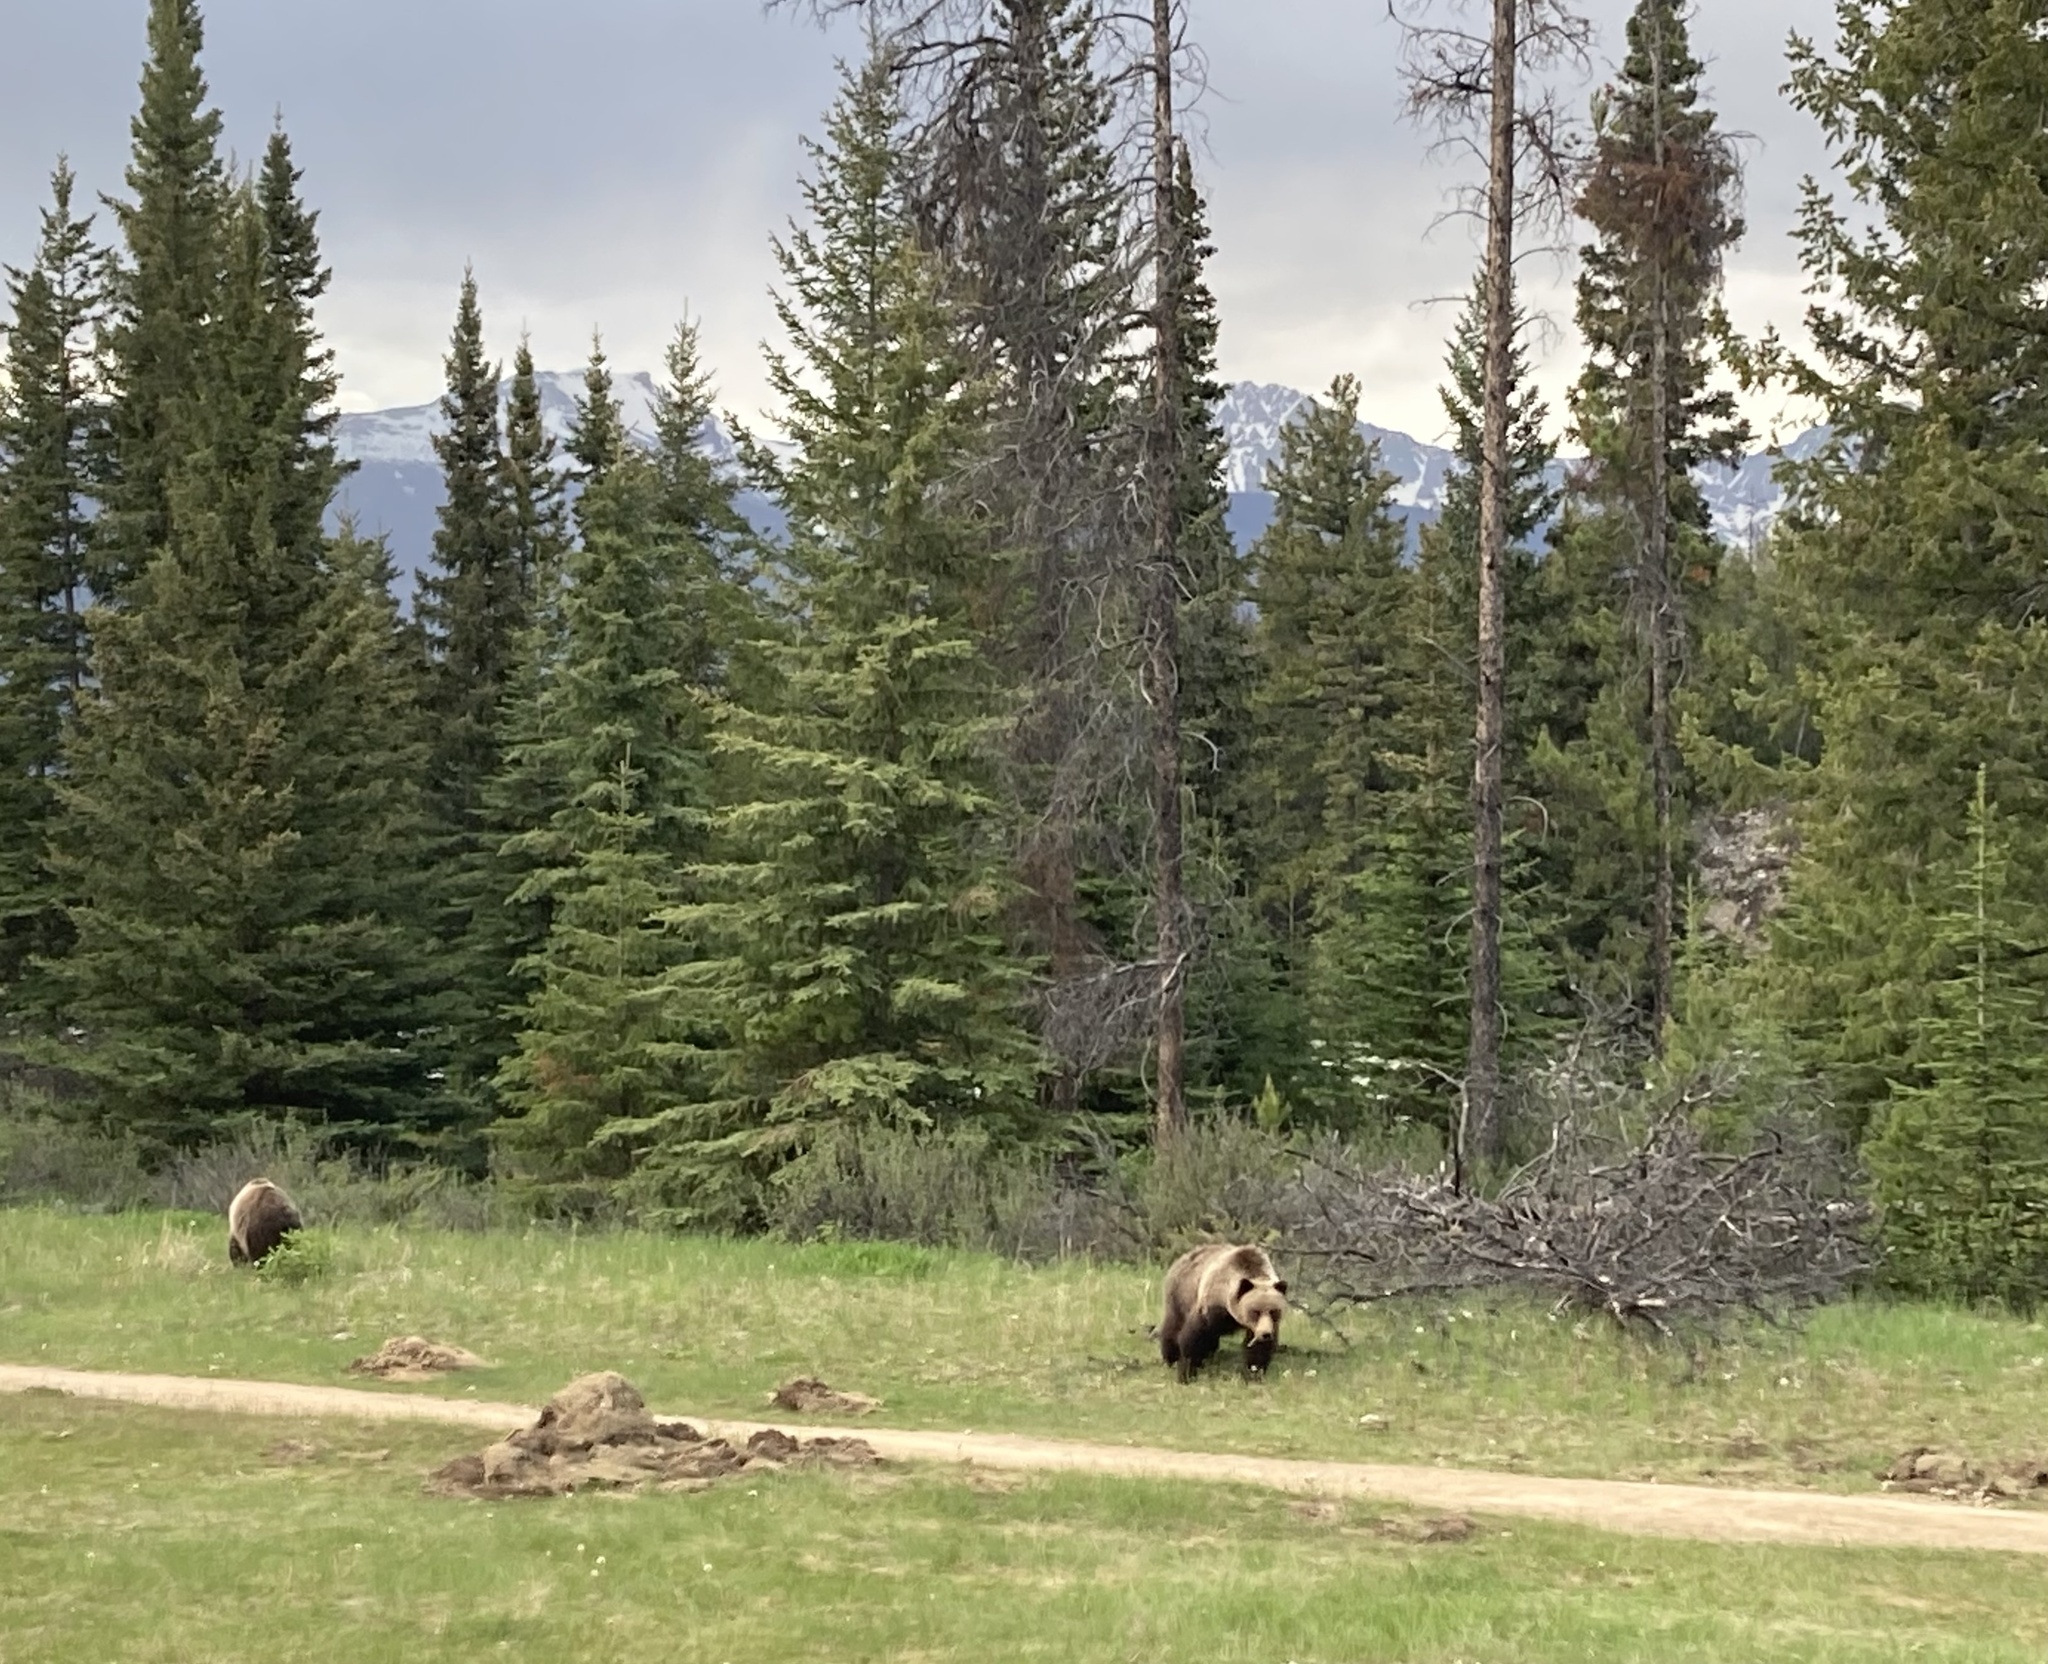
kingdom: Animalia
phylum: Chordata
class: Mammalia
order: Carnivora
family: Ursidae
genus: Ursus
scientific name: Ursus arctos
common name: Brown bear
